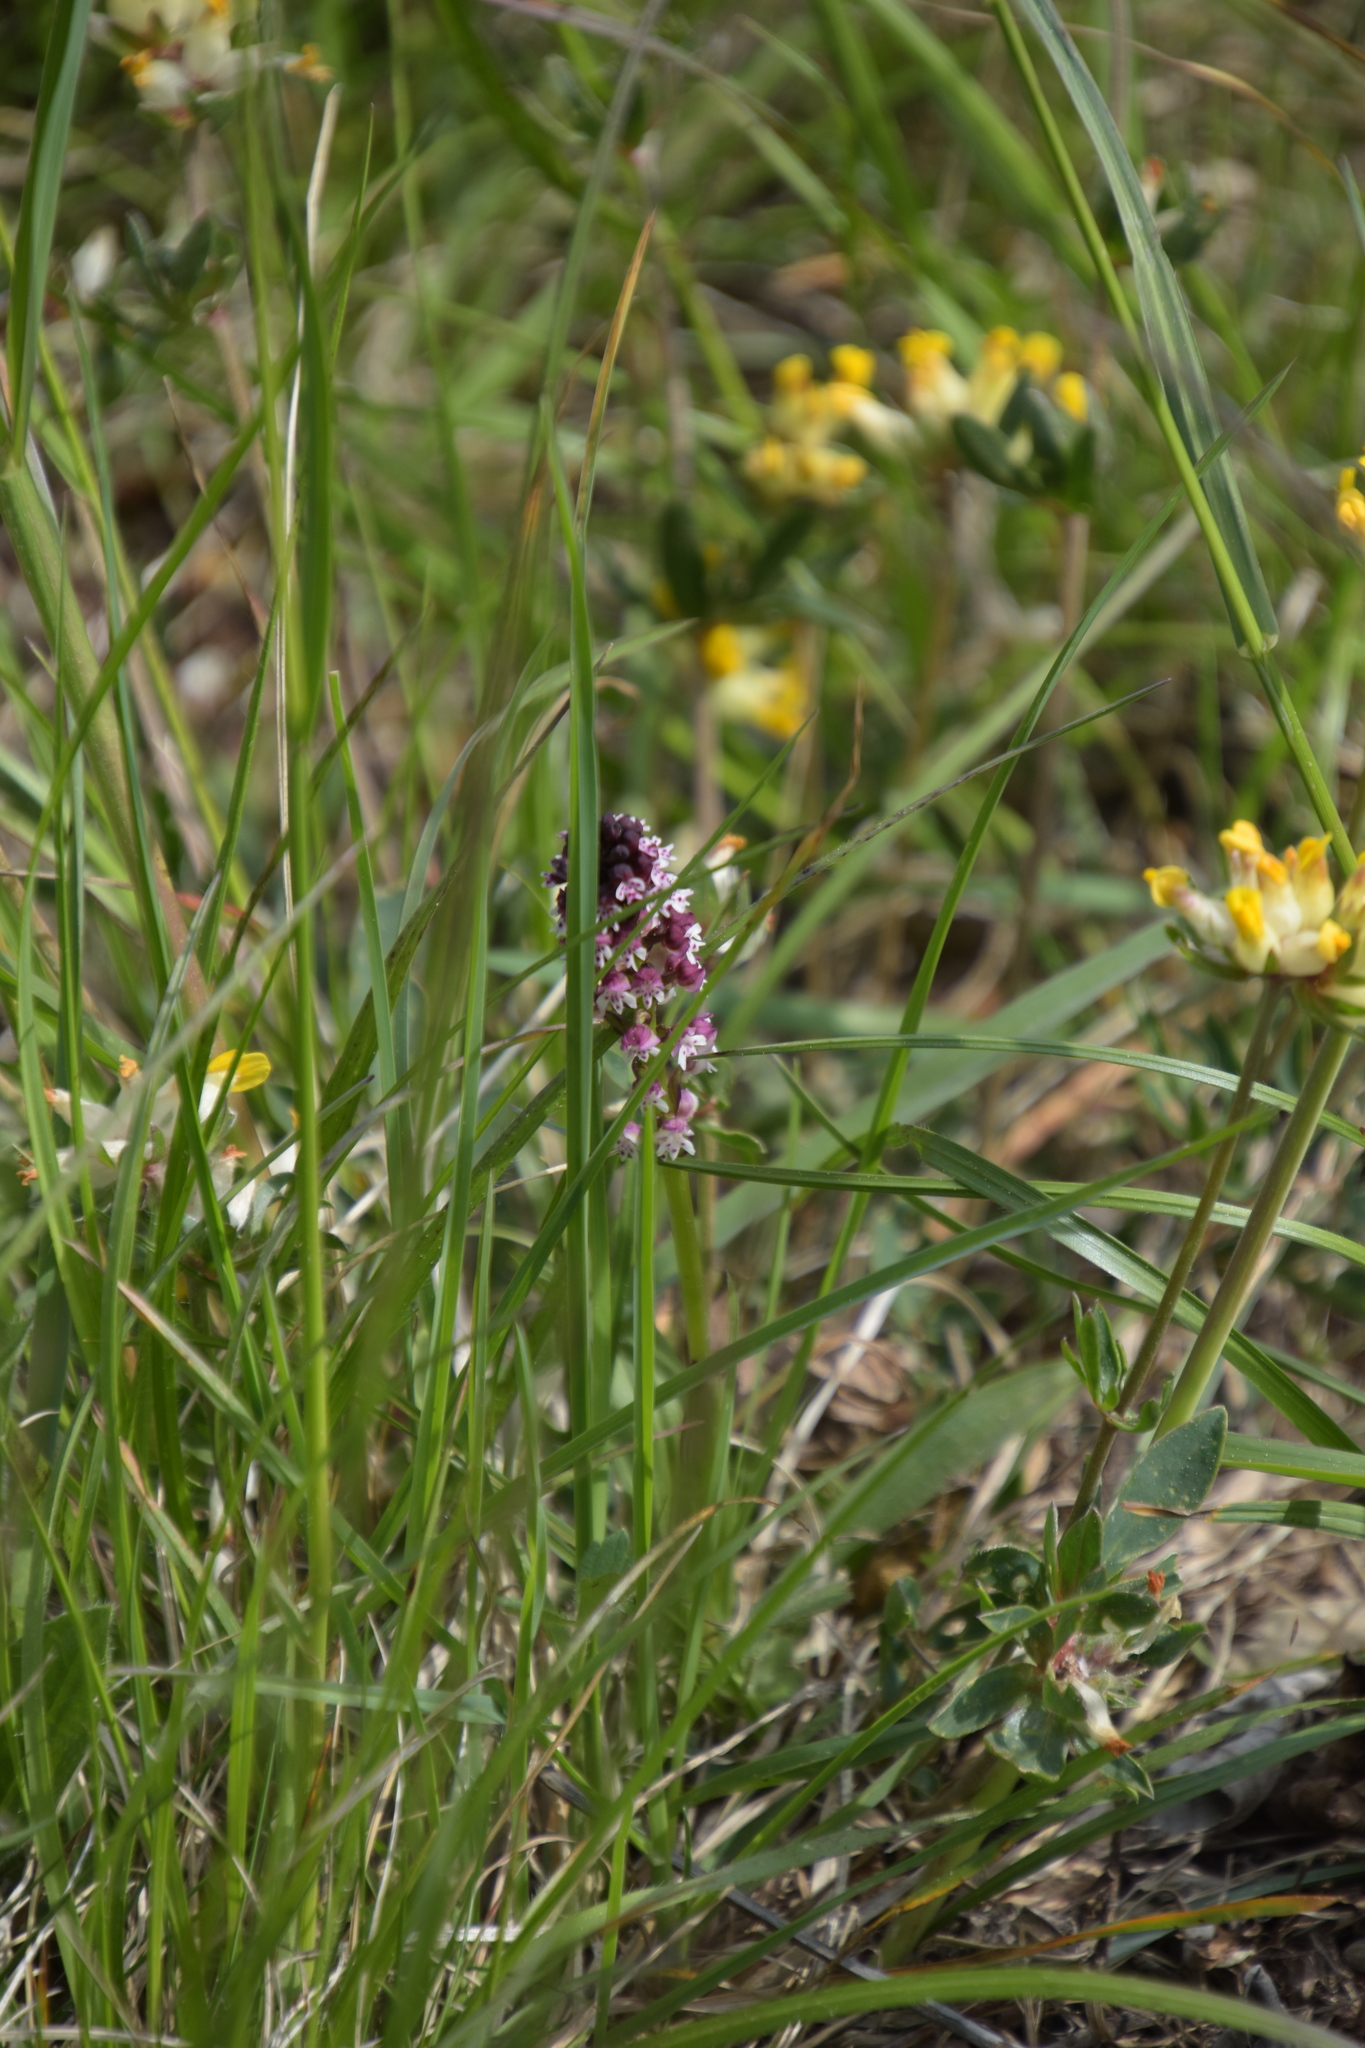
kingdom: Plantae
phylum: Tracheophyta
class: Liliopsida
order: Asparagales
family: Orchidaceae
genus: Neotinea
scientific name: Neotinea ustulata
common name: Burnt orchid
